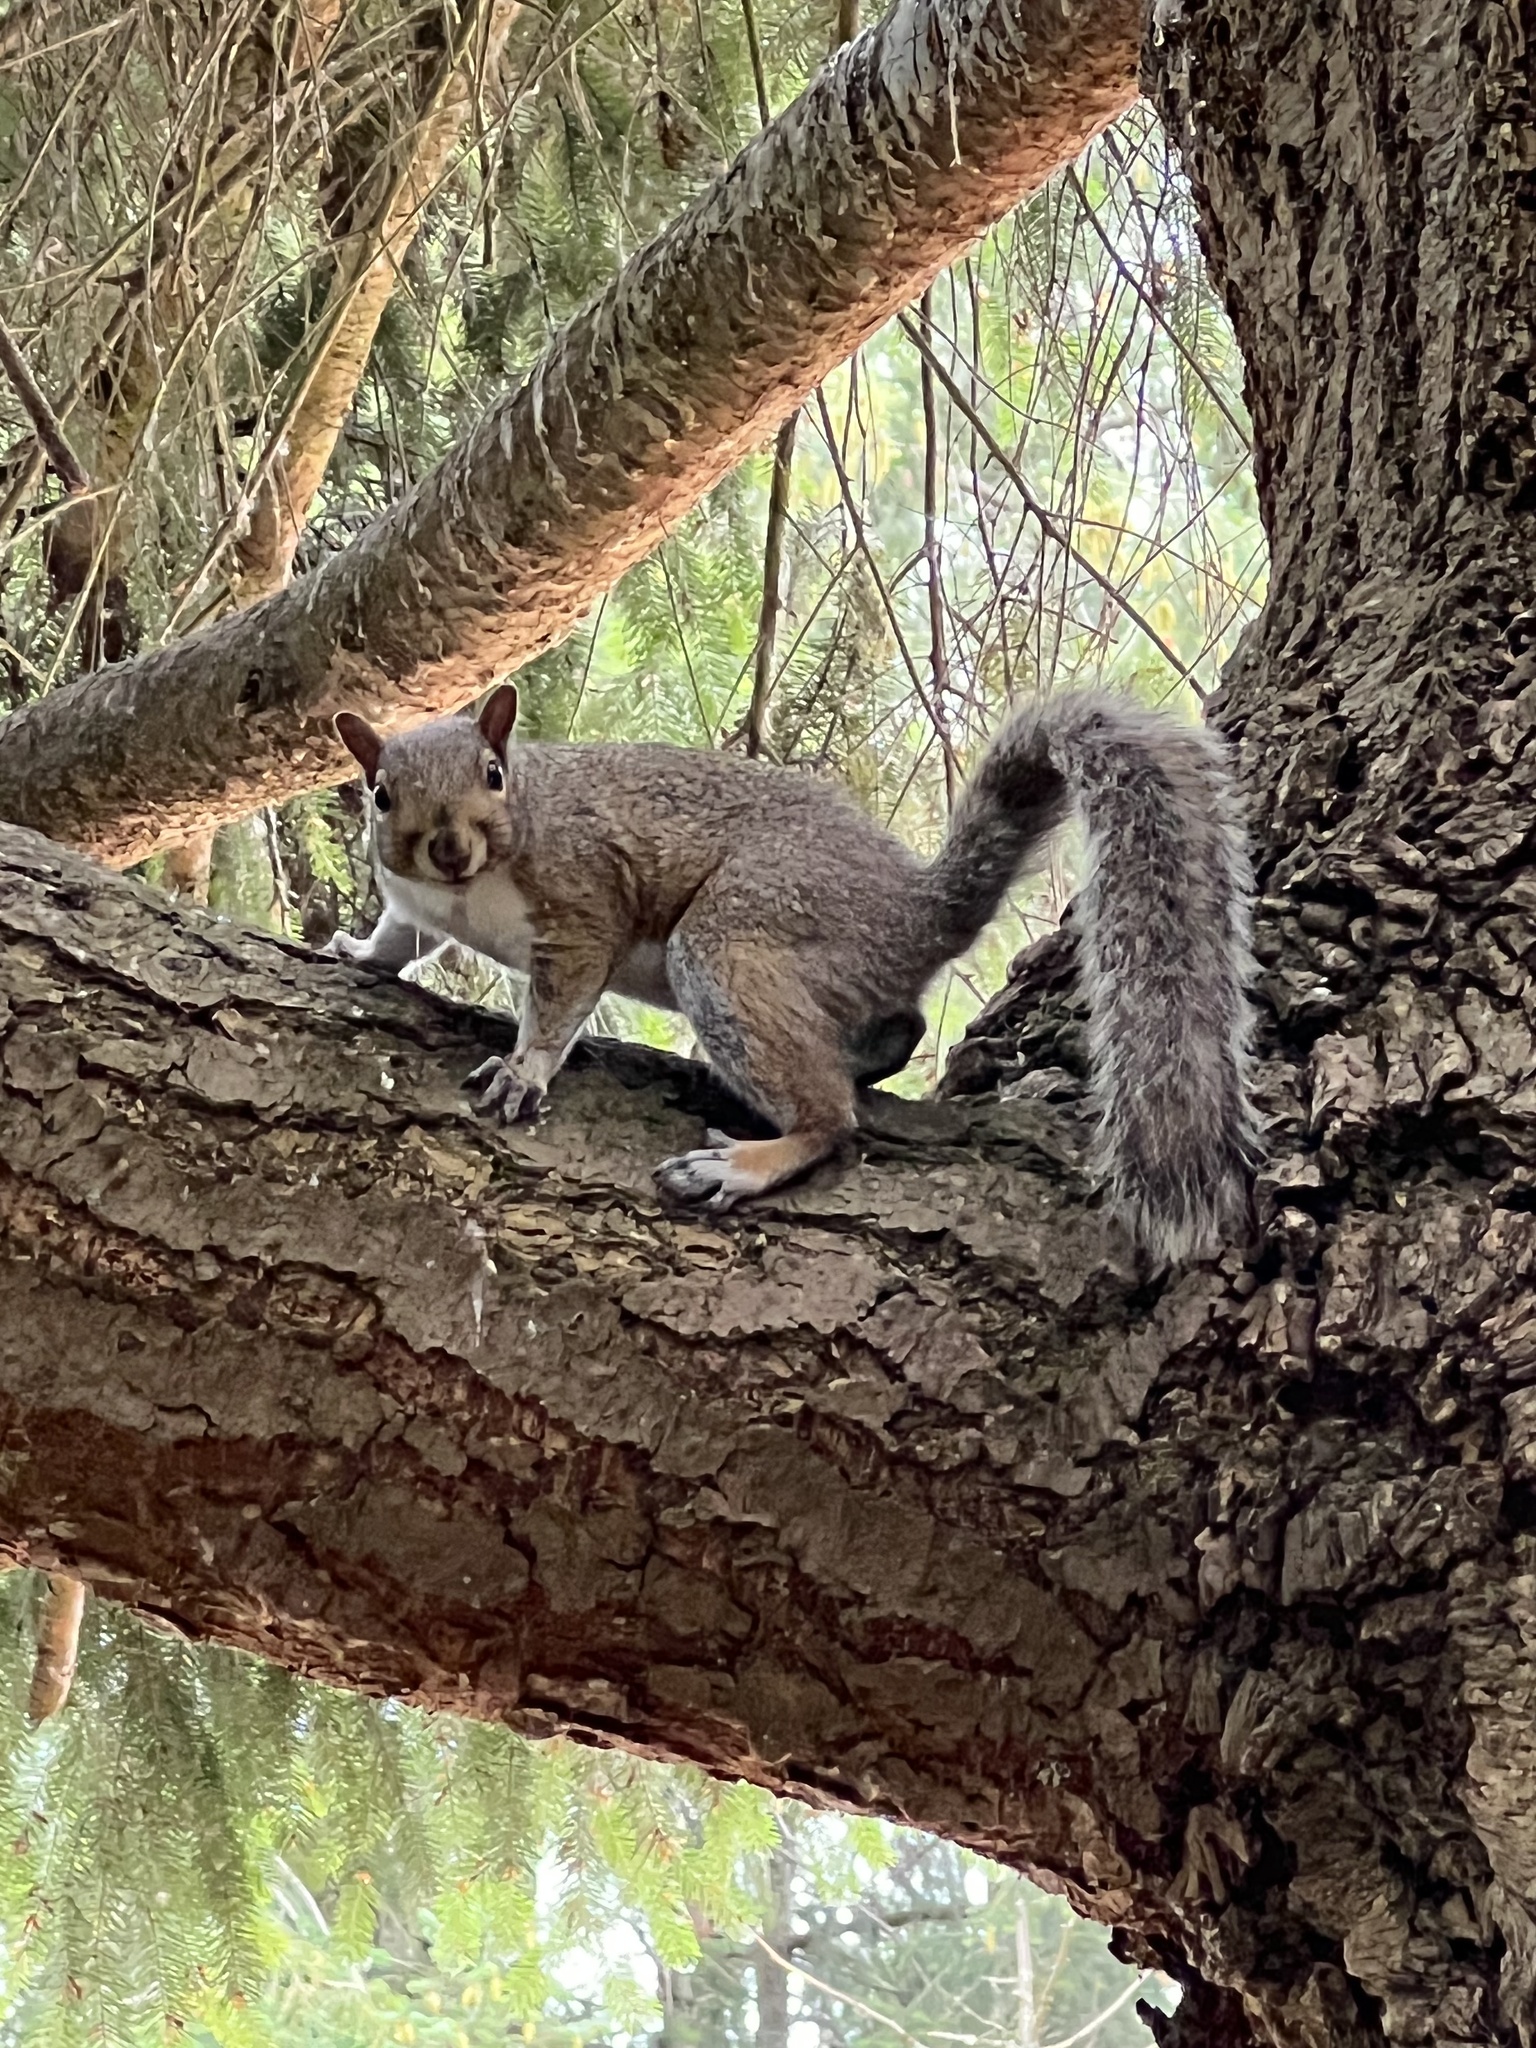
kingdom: Animalia
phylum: Chordata
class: Mammalia
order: Rodentia
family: Sciuridae
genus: Sciurus
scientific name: Sciurus carolinensis
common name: Eastern gray squirrel
